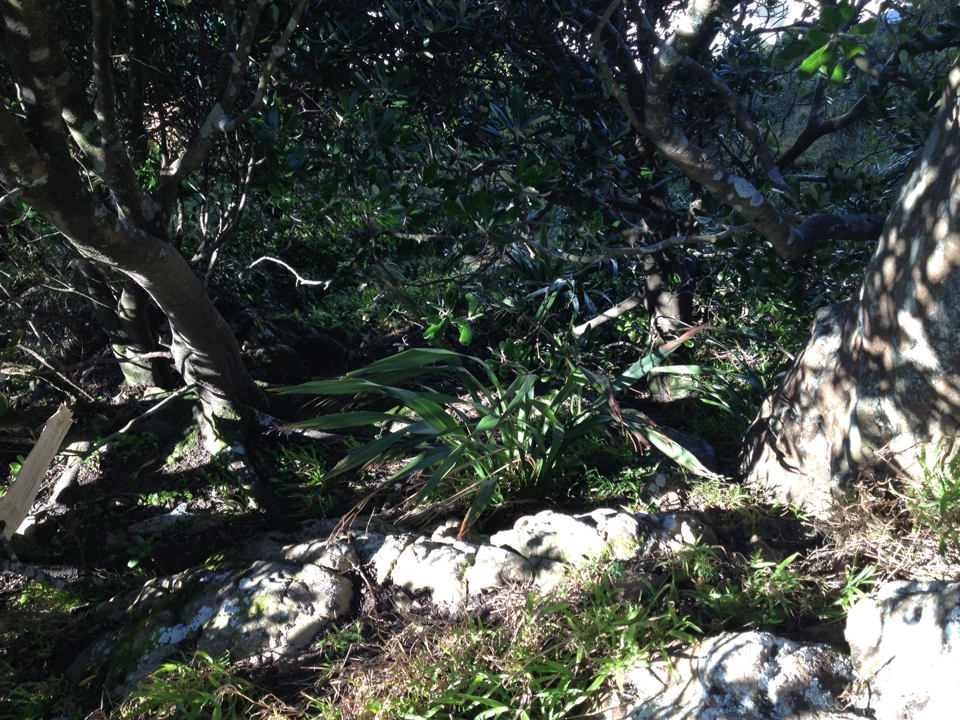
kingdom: Plantae
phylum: Tracheophyta
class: Liliopsida
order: Asparagales
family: Asphodelaceae
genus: Phormium
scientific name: Phormium colensoi
